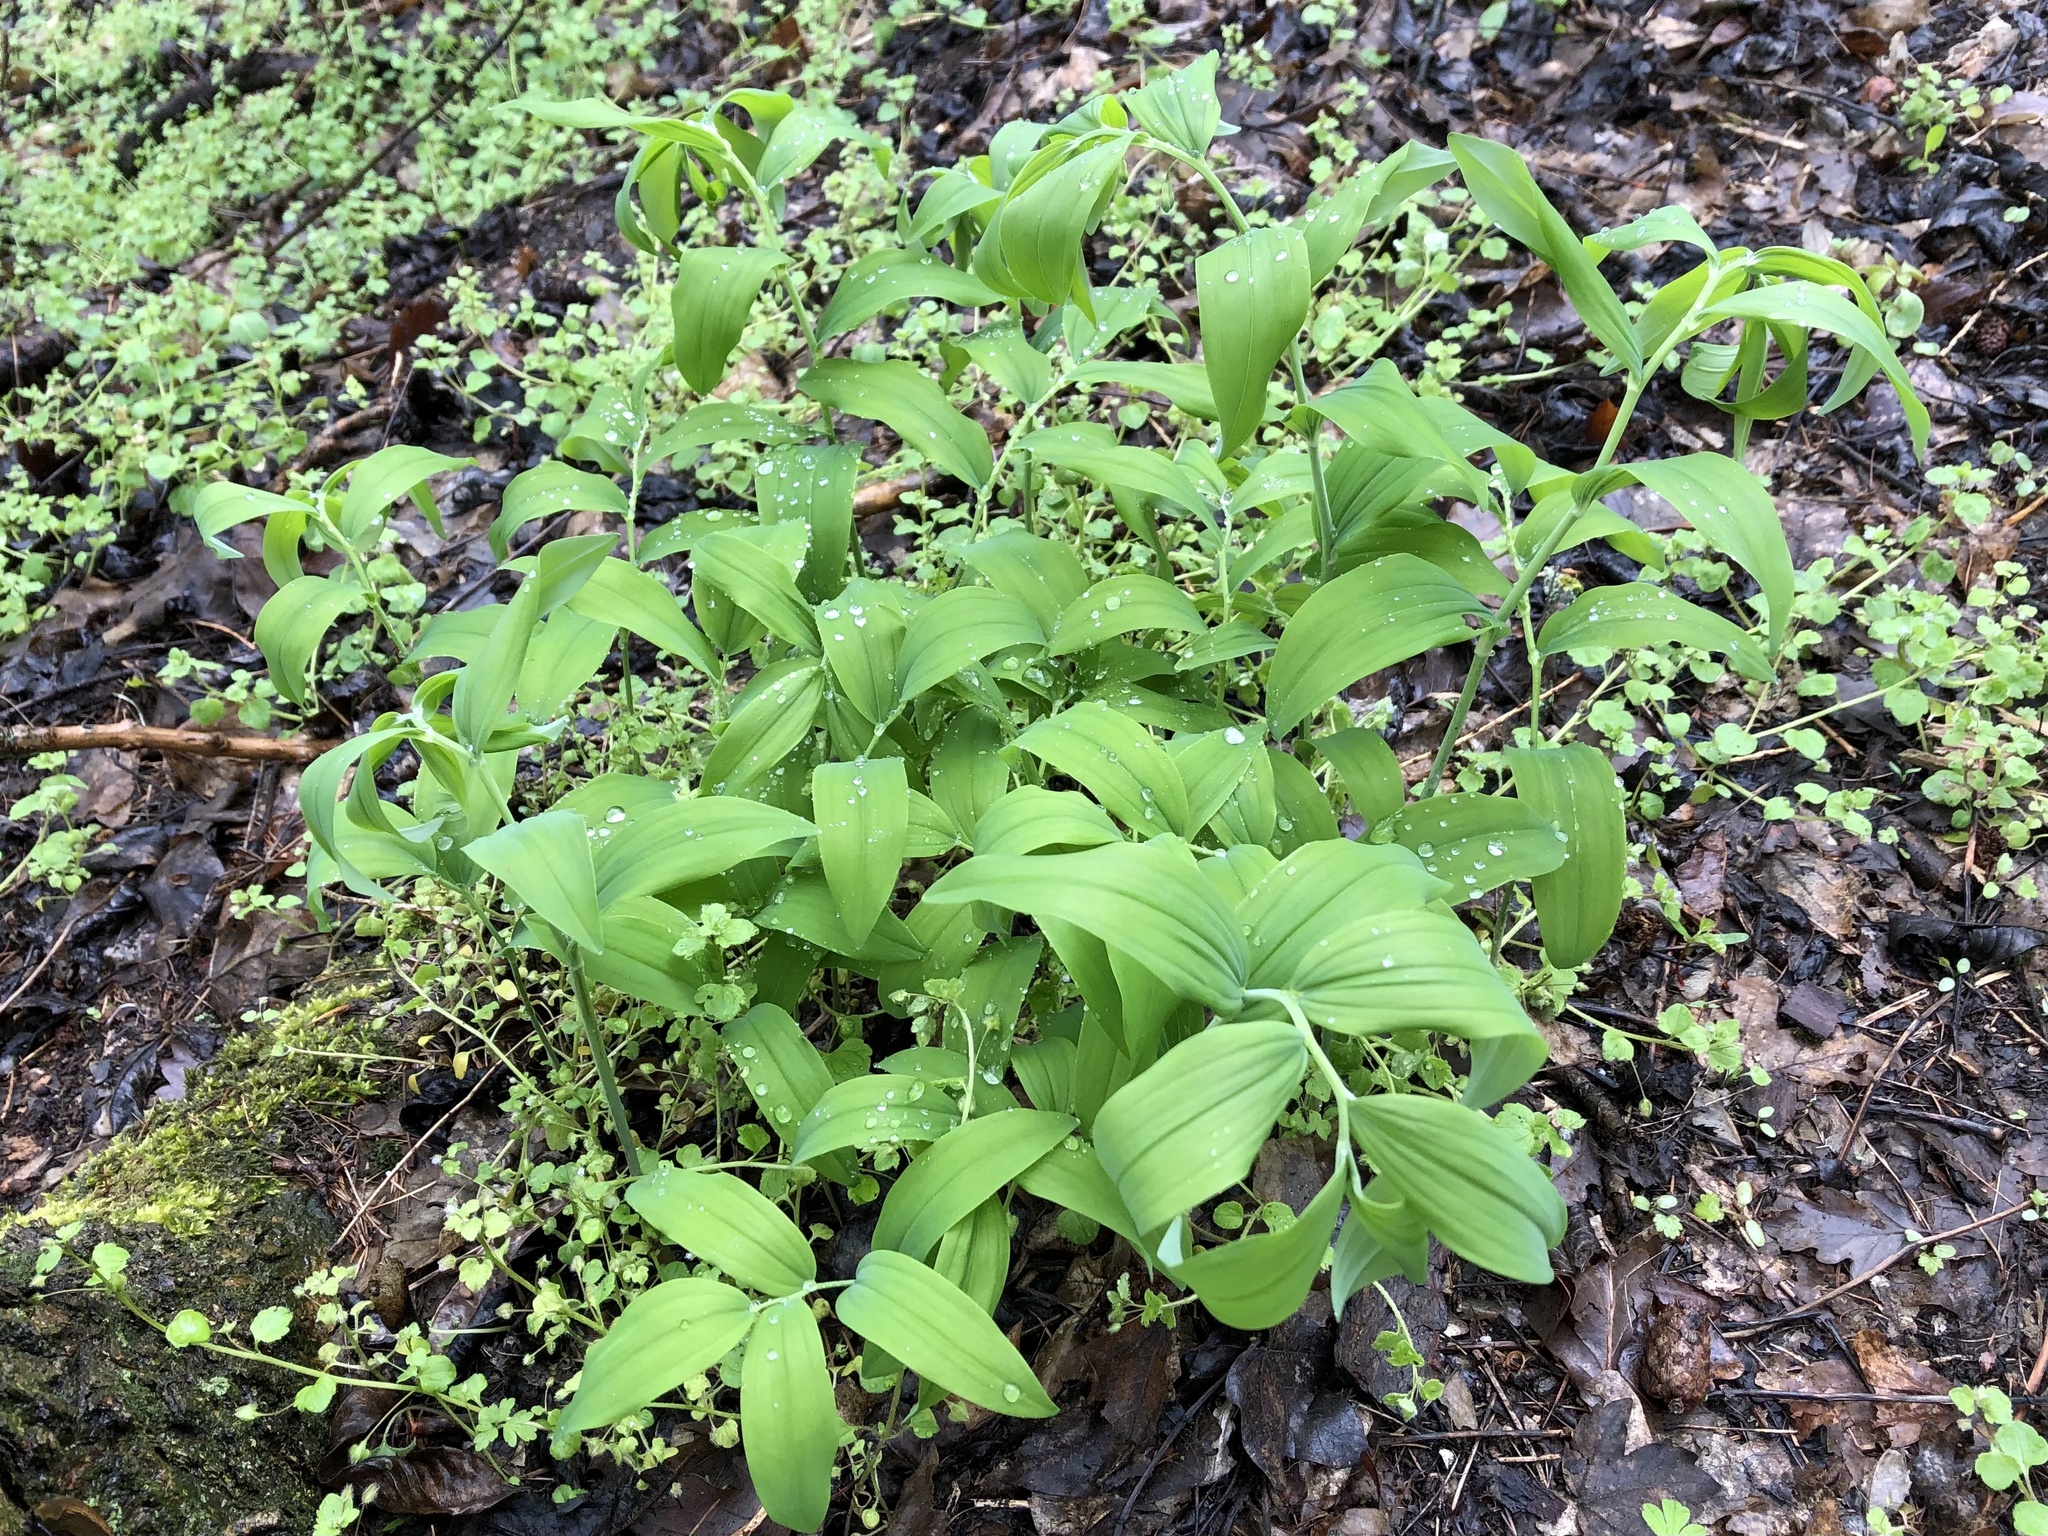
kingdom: Plantae
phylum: Tracheophyta
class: Liliopsida
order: Asparagales
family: Asparagaceae
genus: Polygonatum
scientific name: Polygonatum multiflorum
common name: Solomon's-seal
